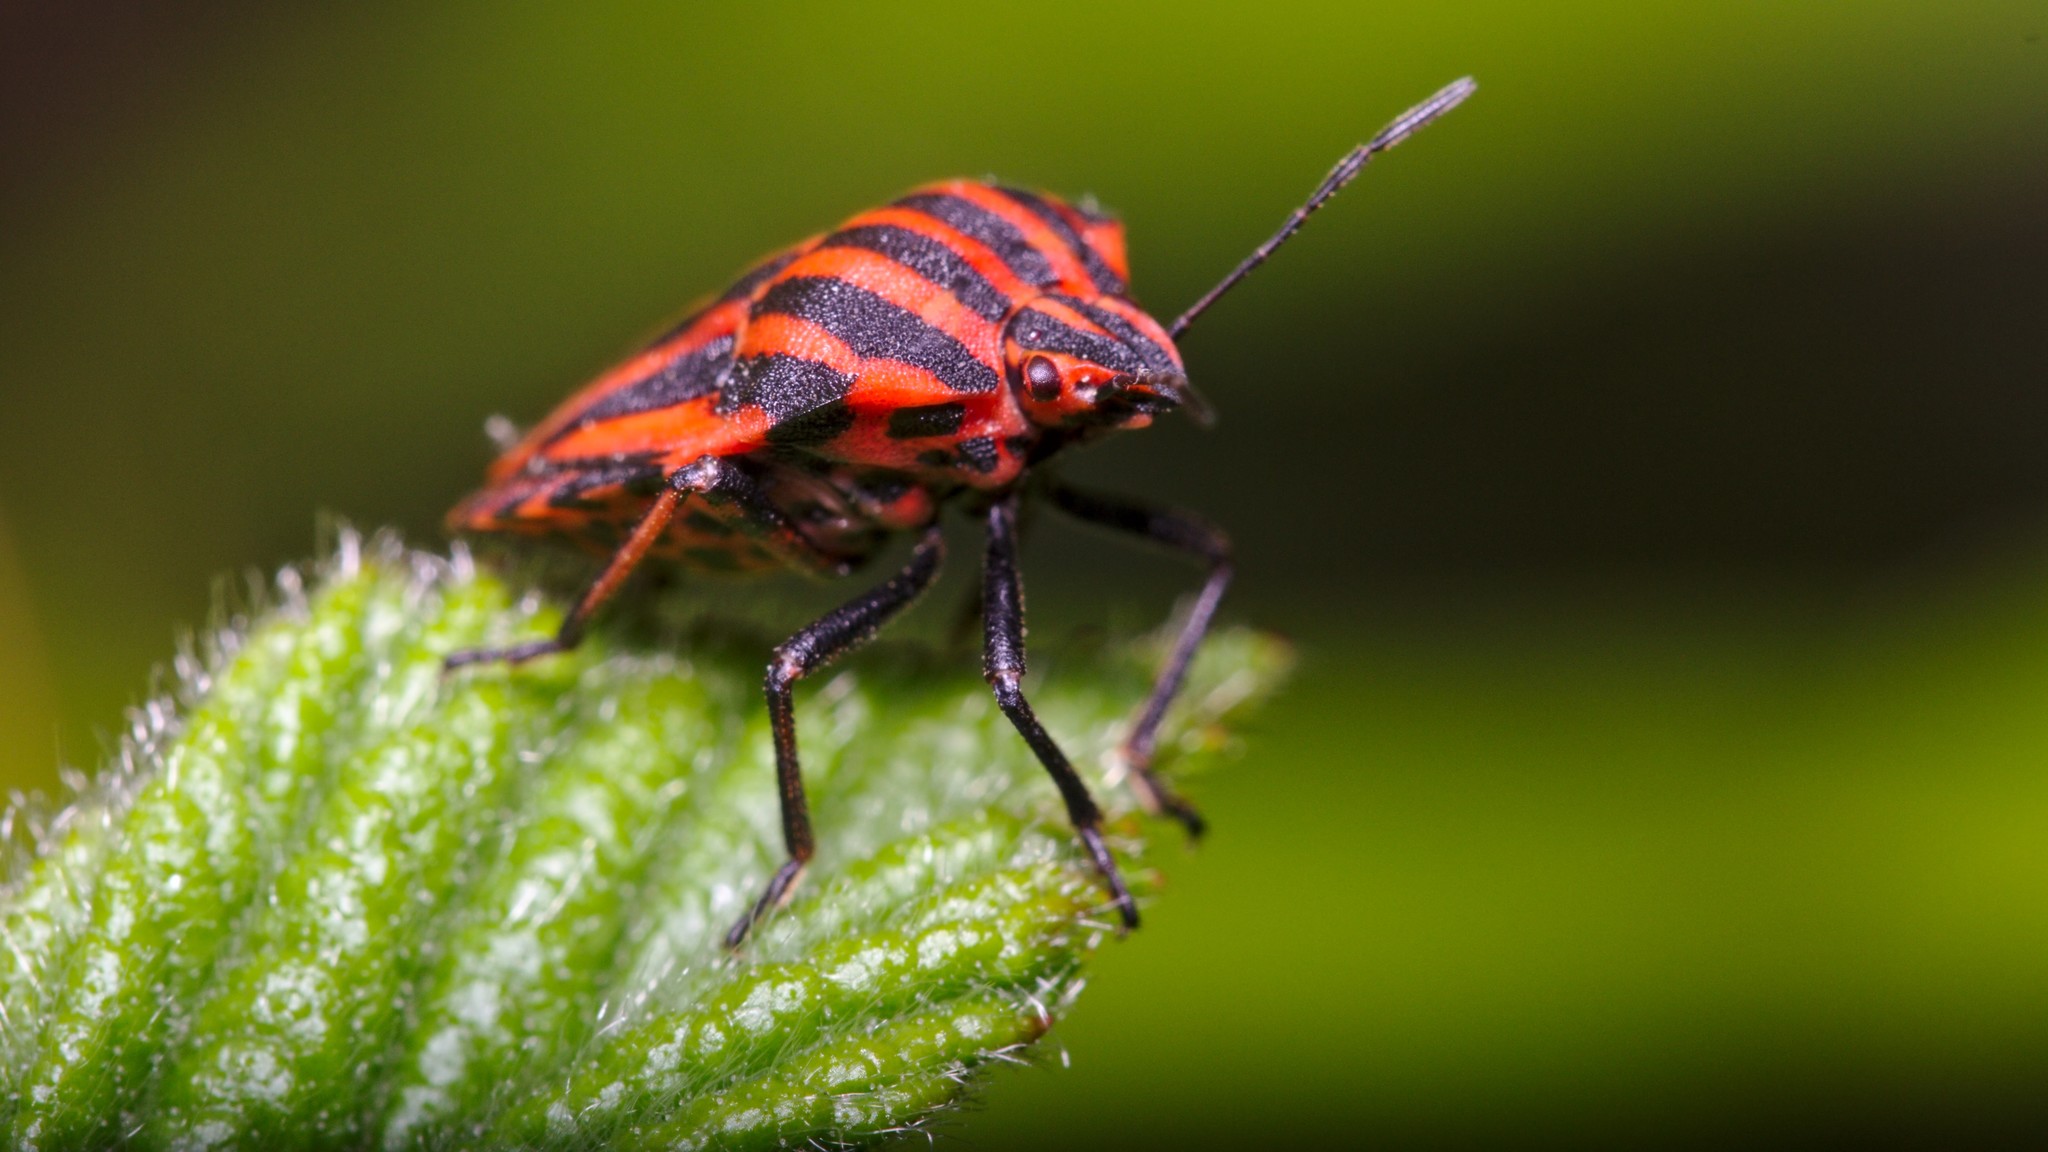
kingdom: Animalia
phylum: Arthropoda
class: Insecta
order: Hemiptera
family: Pentatomidae
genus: Graphosoma
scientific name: Graphosoma italicum
